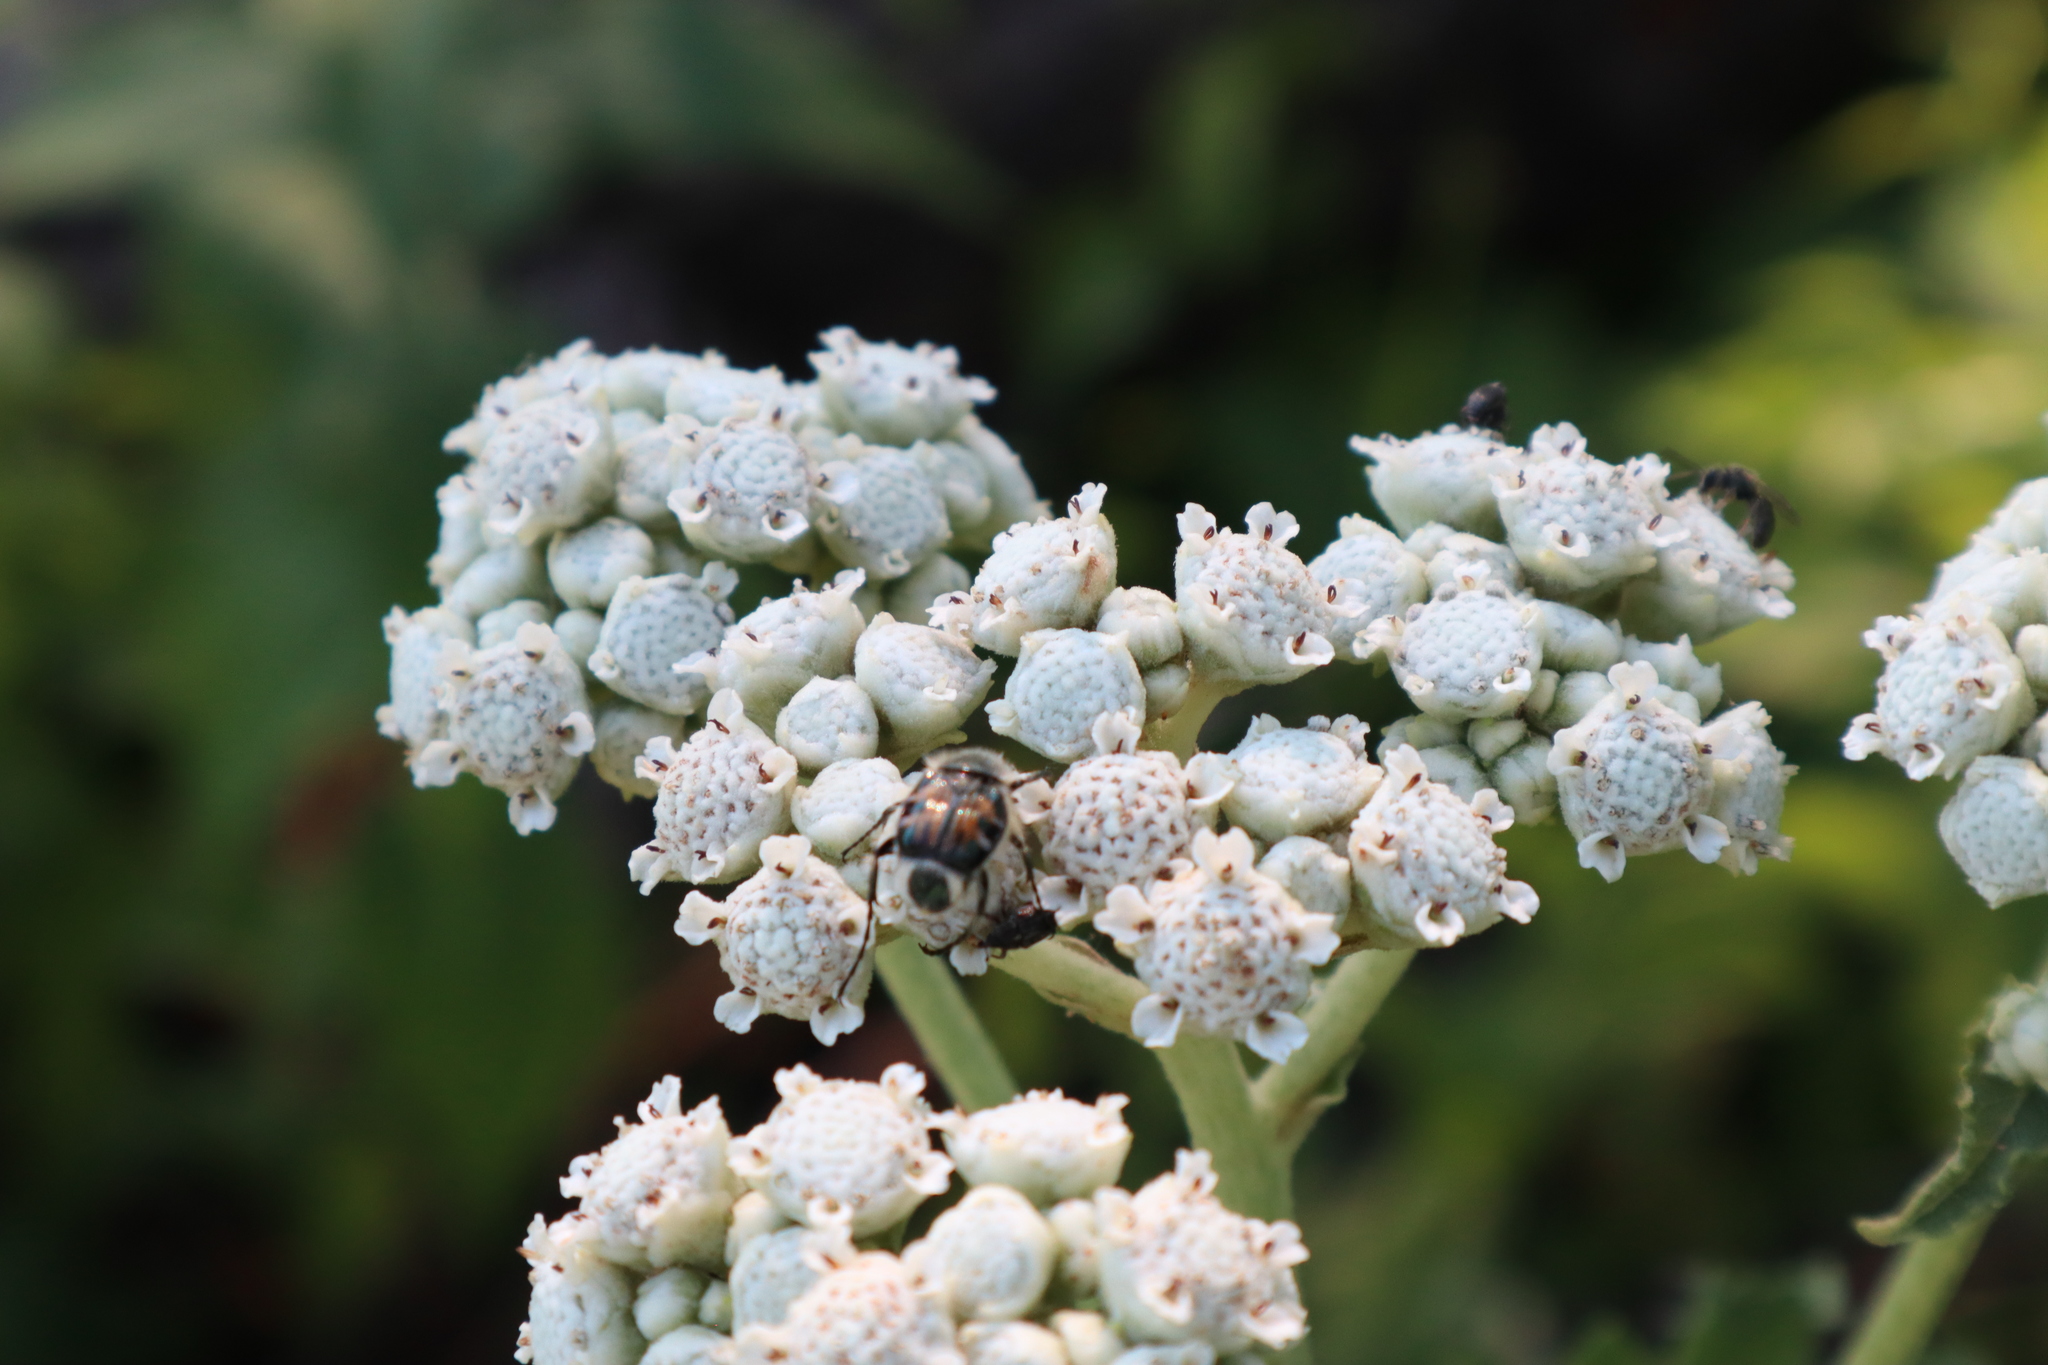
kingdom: Animalia
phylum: Arthropoda
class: Insecta
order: Coleoptera
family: Scarabaeidae
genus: Trichiotinus
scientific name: Trichiotinus viridans
